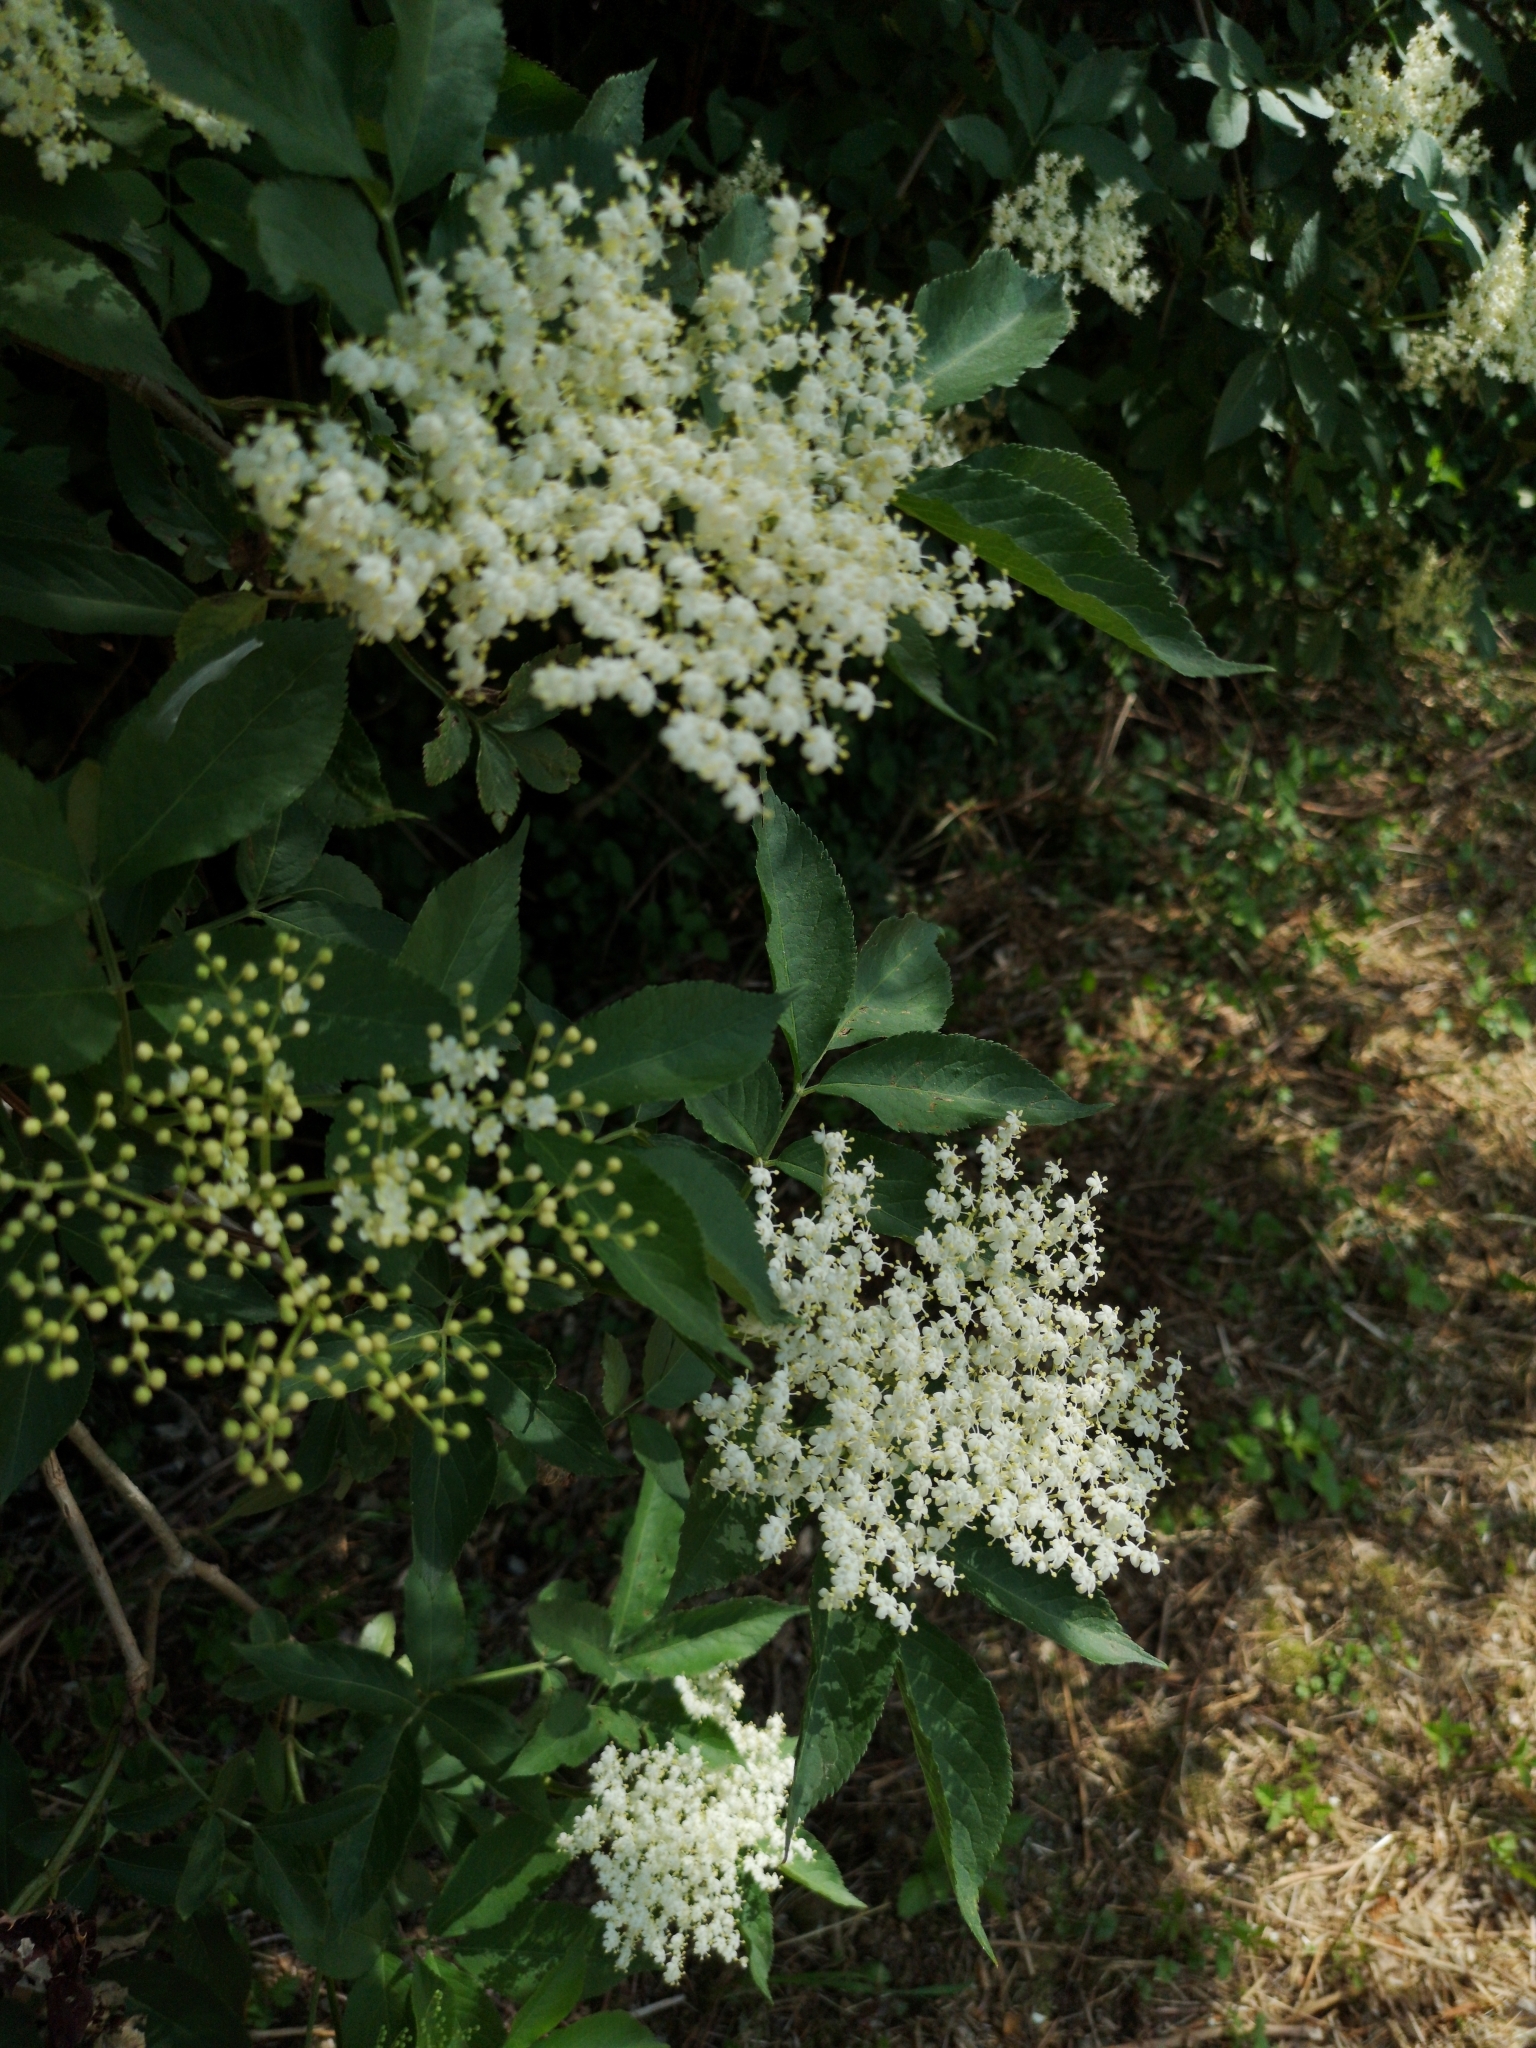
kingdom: Plantae
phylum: Tracheophyta
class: Magnoliopsida
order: Dipsacales
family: Viburnaceae
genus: Sambucus
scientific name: Sambucus nigra
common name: Elder
